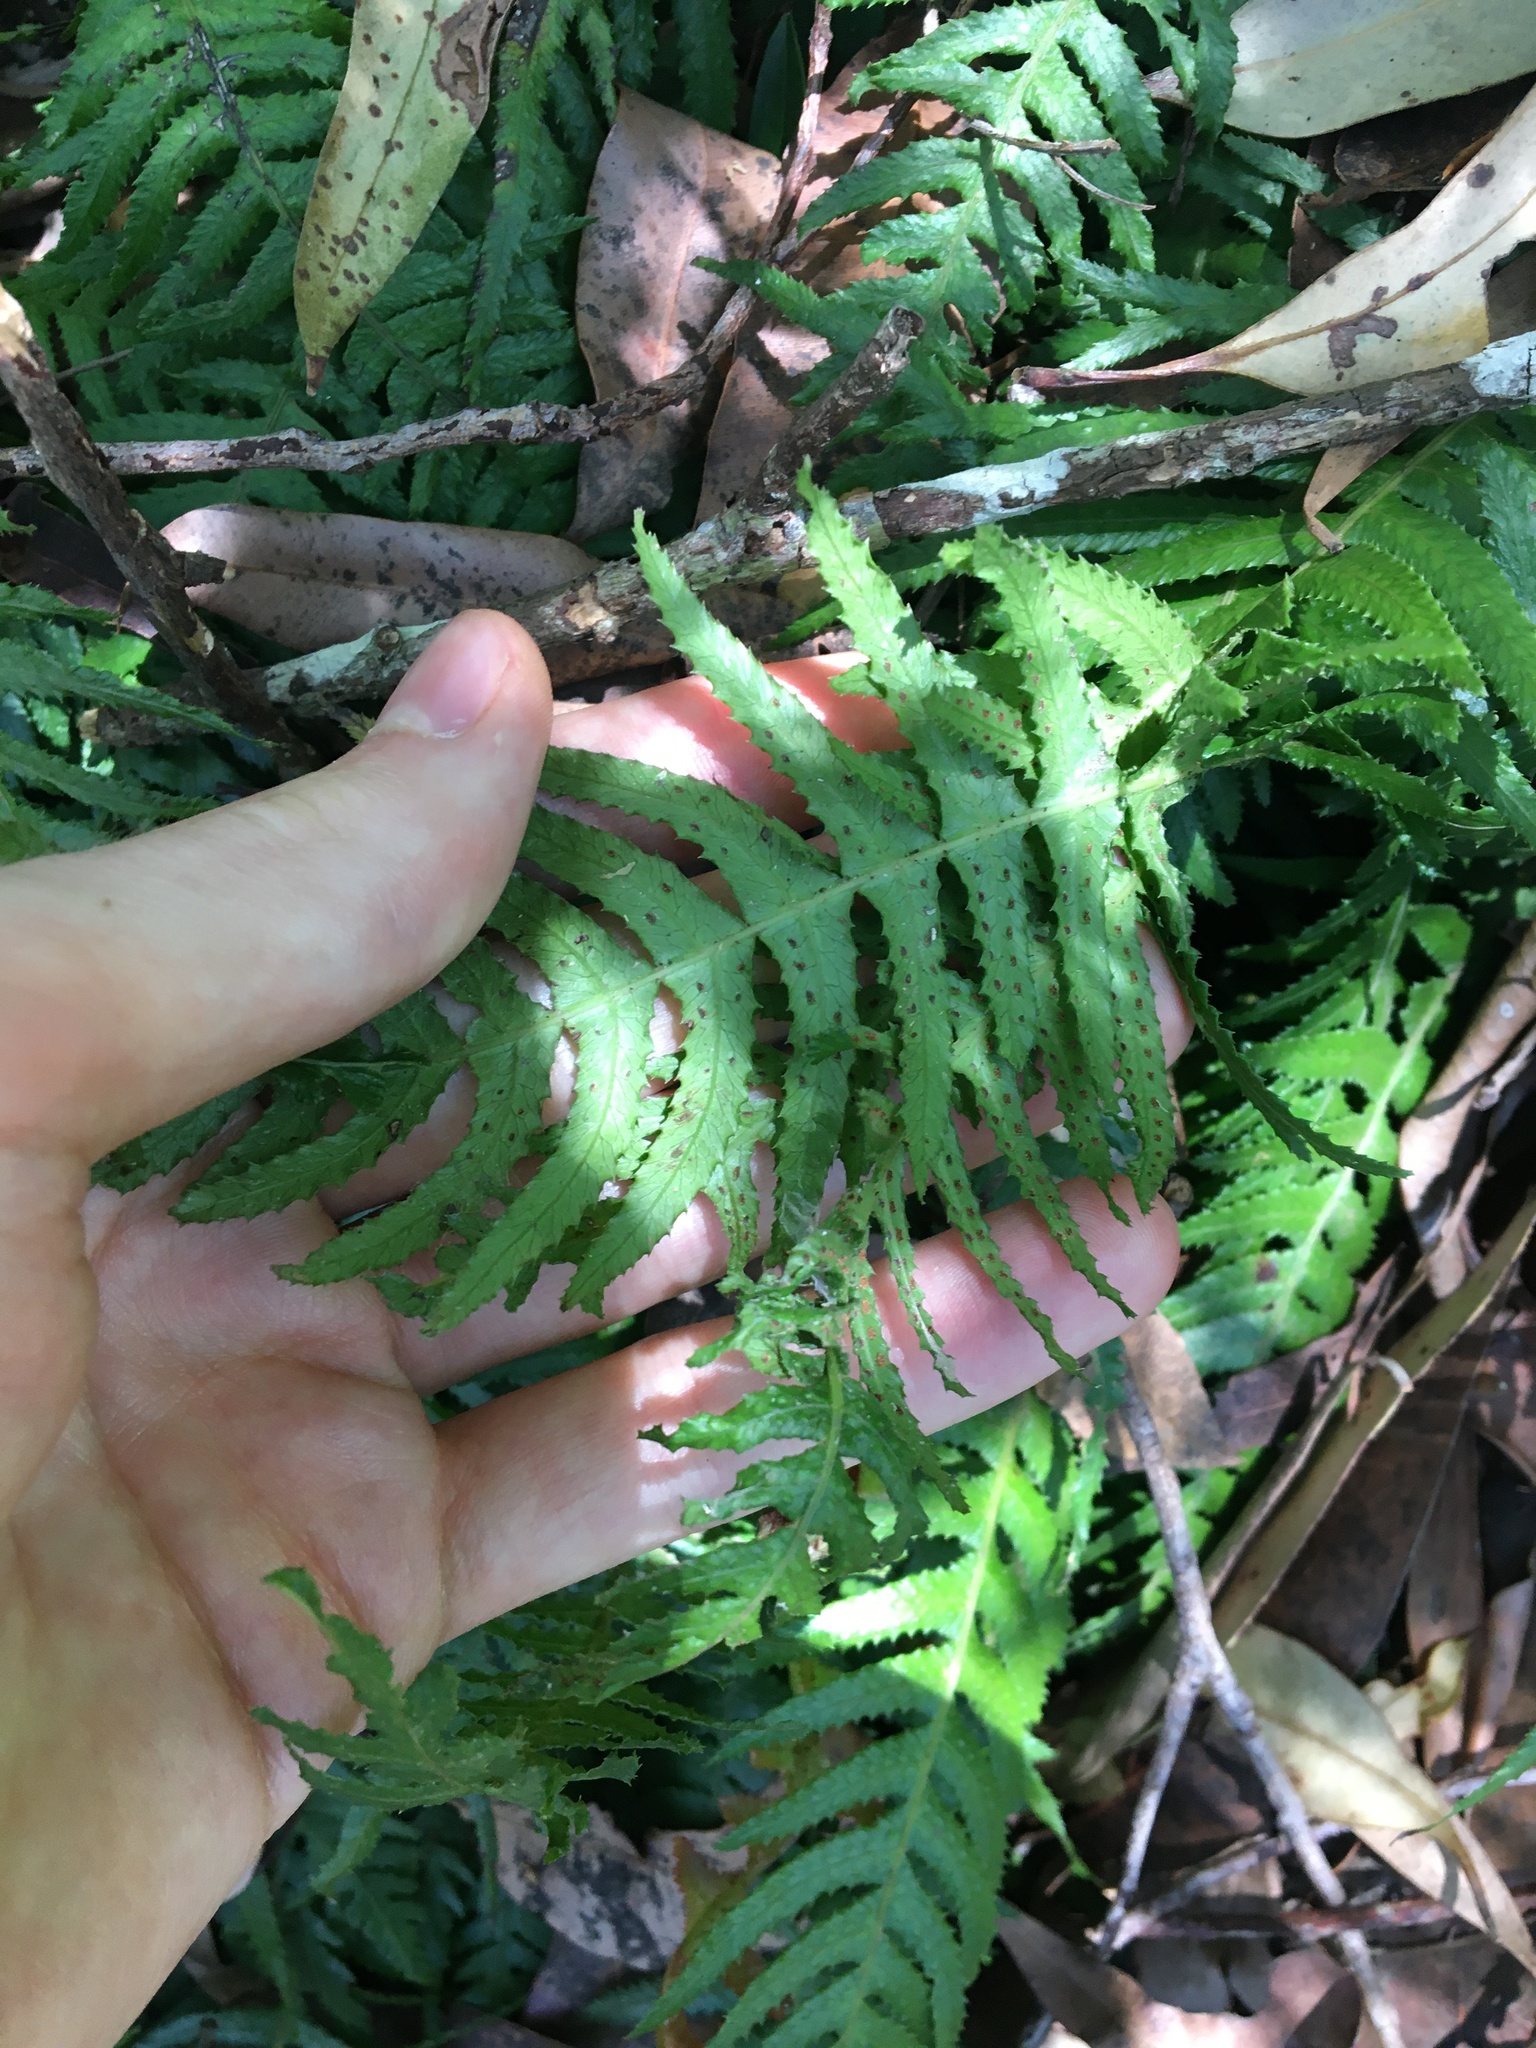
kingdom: Plantae
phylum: Tracheophyta
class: Polypodiopsida
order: Polypodiales
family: Blechnaceae
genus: Doodia
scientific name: Doodia aspera
